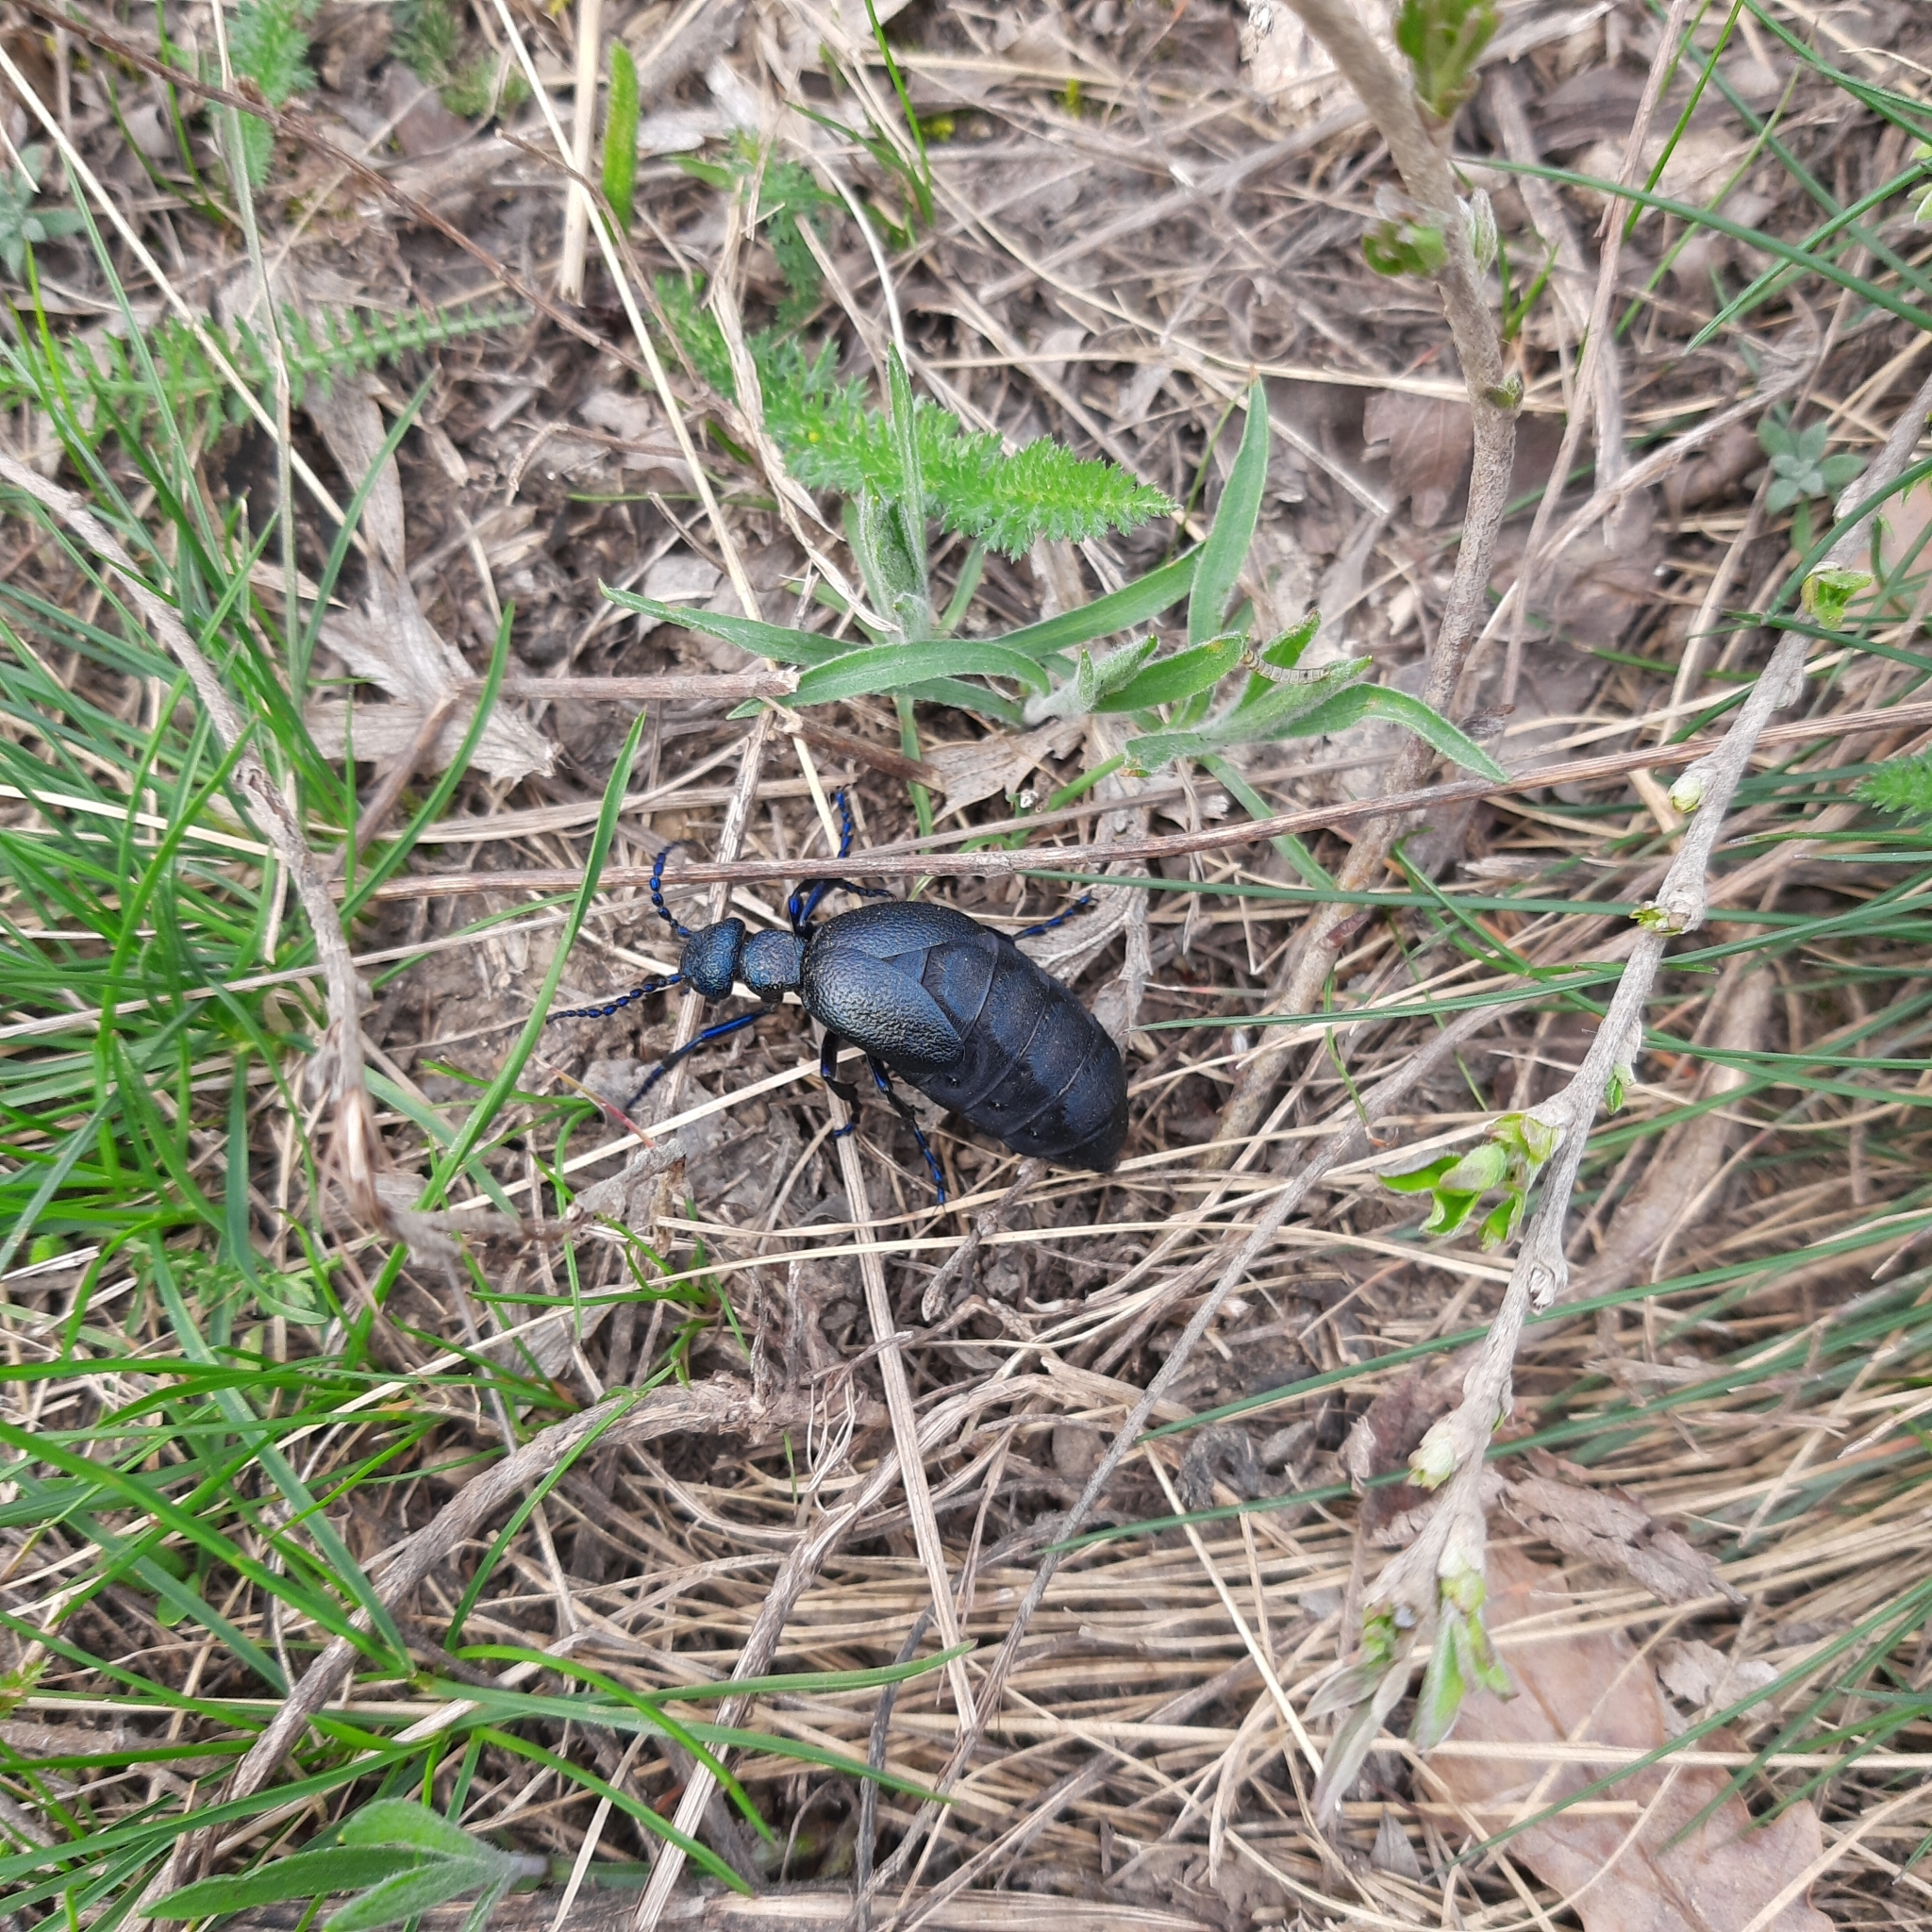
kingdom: Animalia
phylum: Arthropoda
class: Insecta
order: Coleoptera
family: Meloidae
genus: Meloe
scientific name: Meloe proscarabaeus
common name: Black oil-beetle
